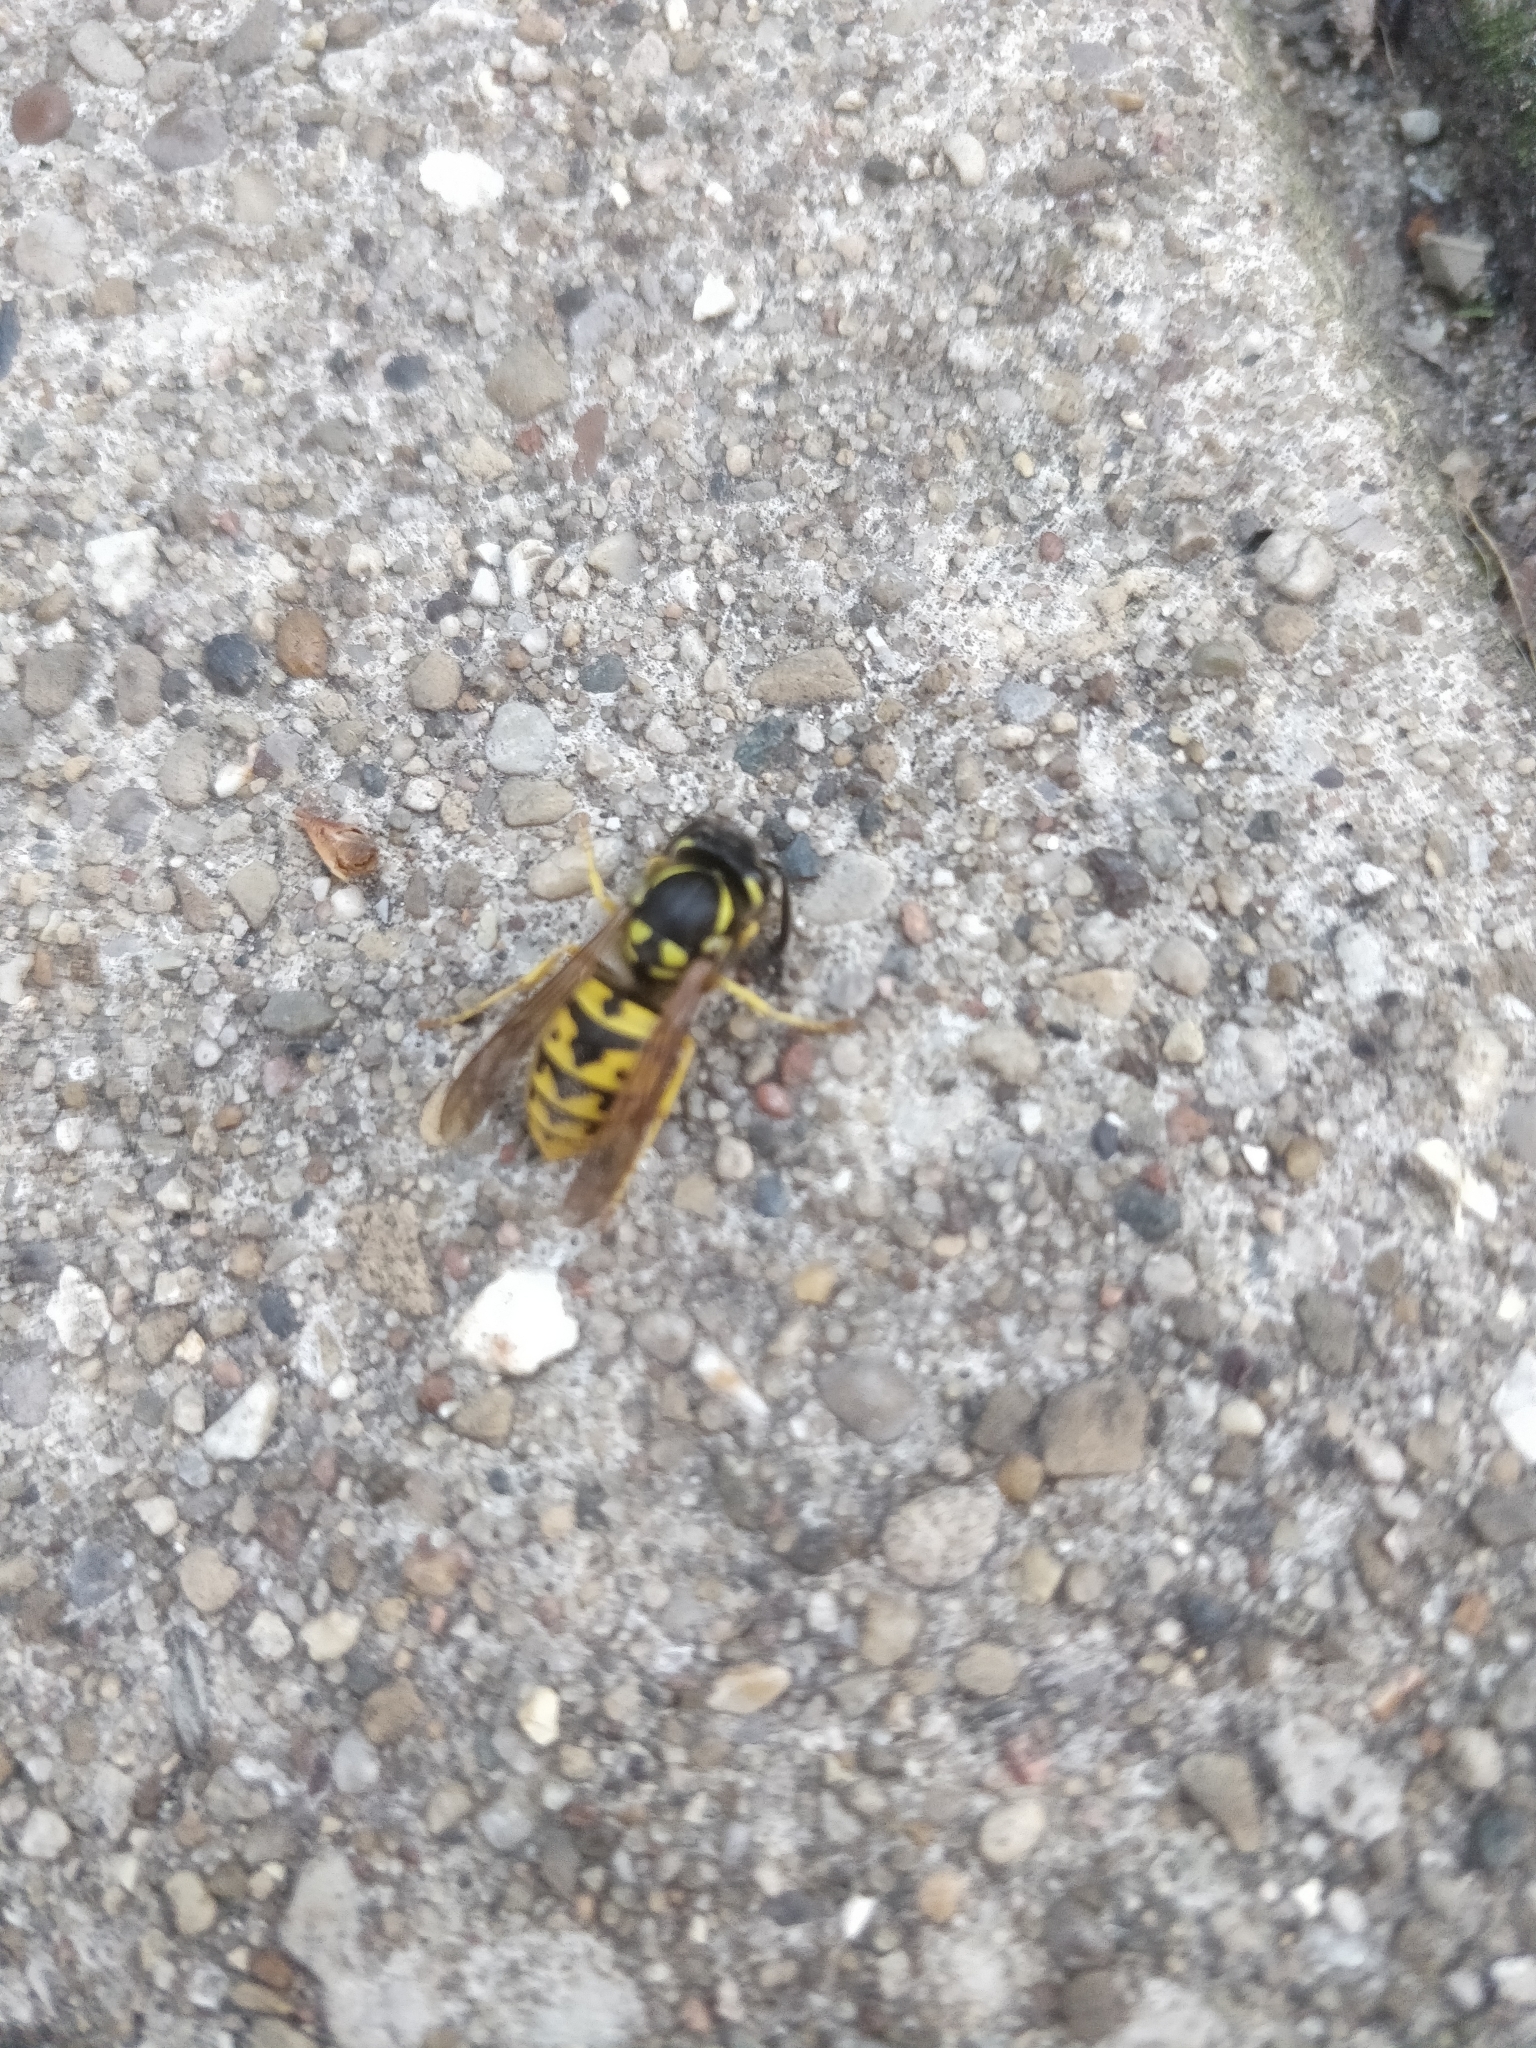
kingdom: Animalia
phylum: Arthropoda
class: Insecta
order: Hymenoptera
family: Vespidae
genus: Vespula
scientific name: Vespula germanica
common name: German wasp
